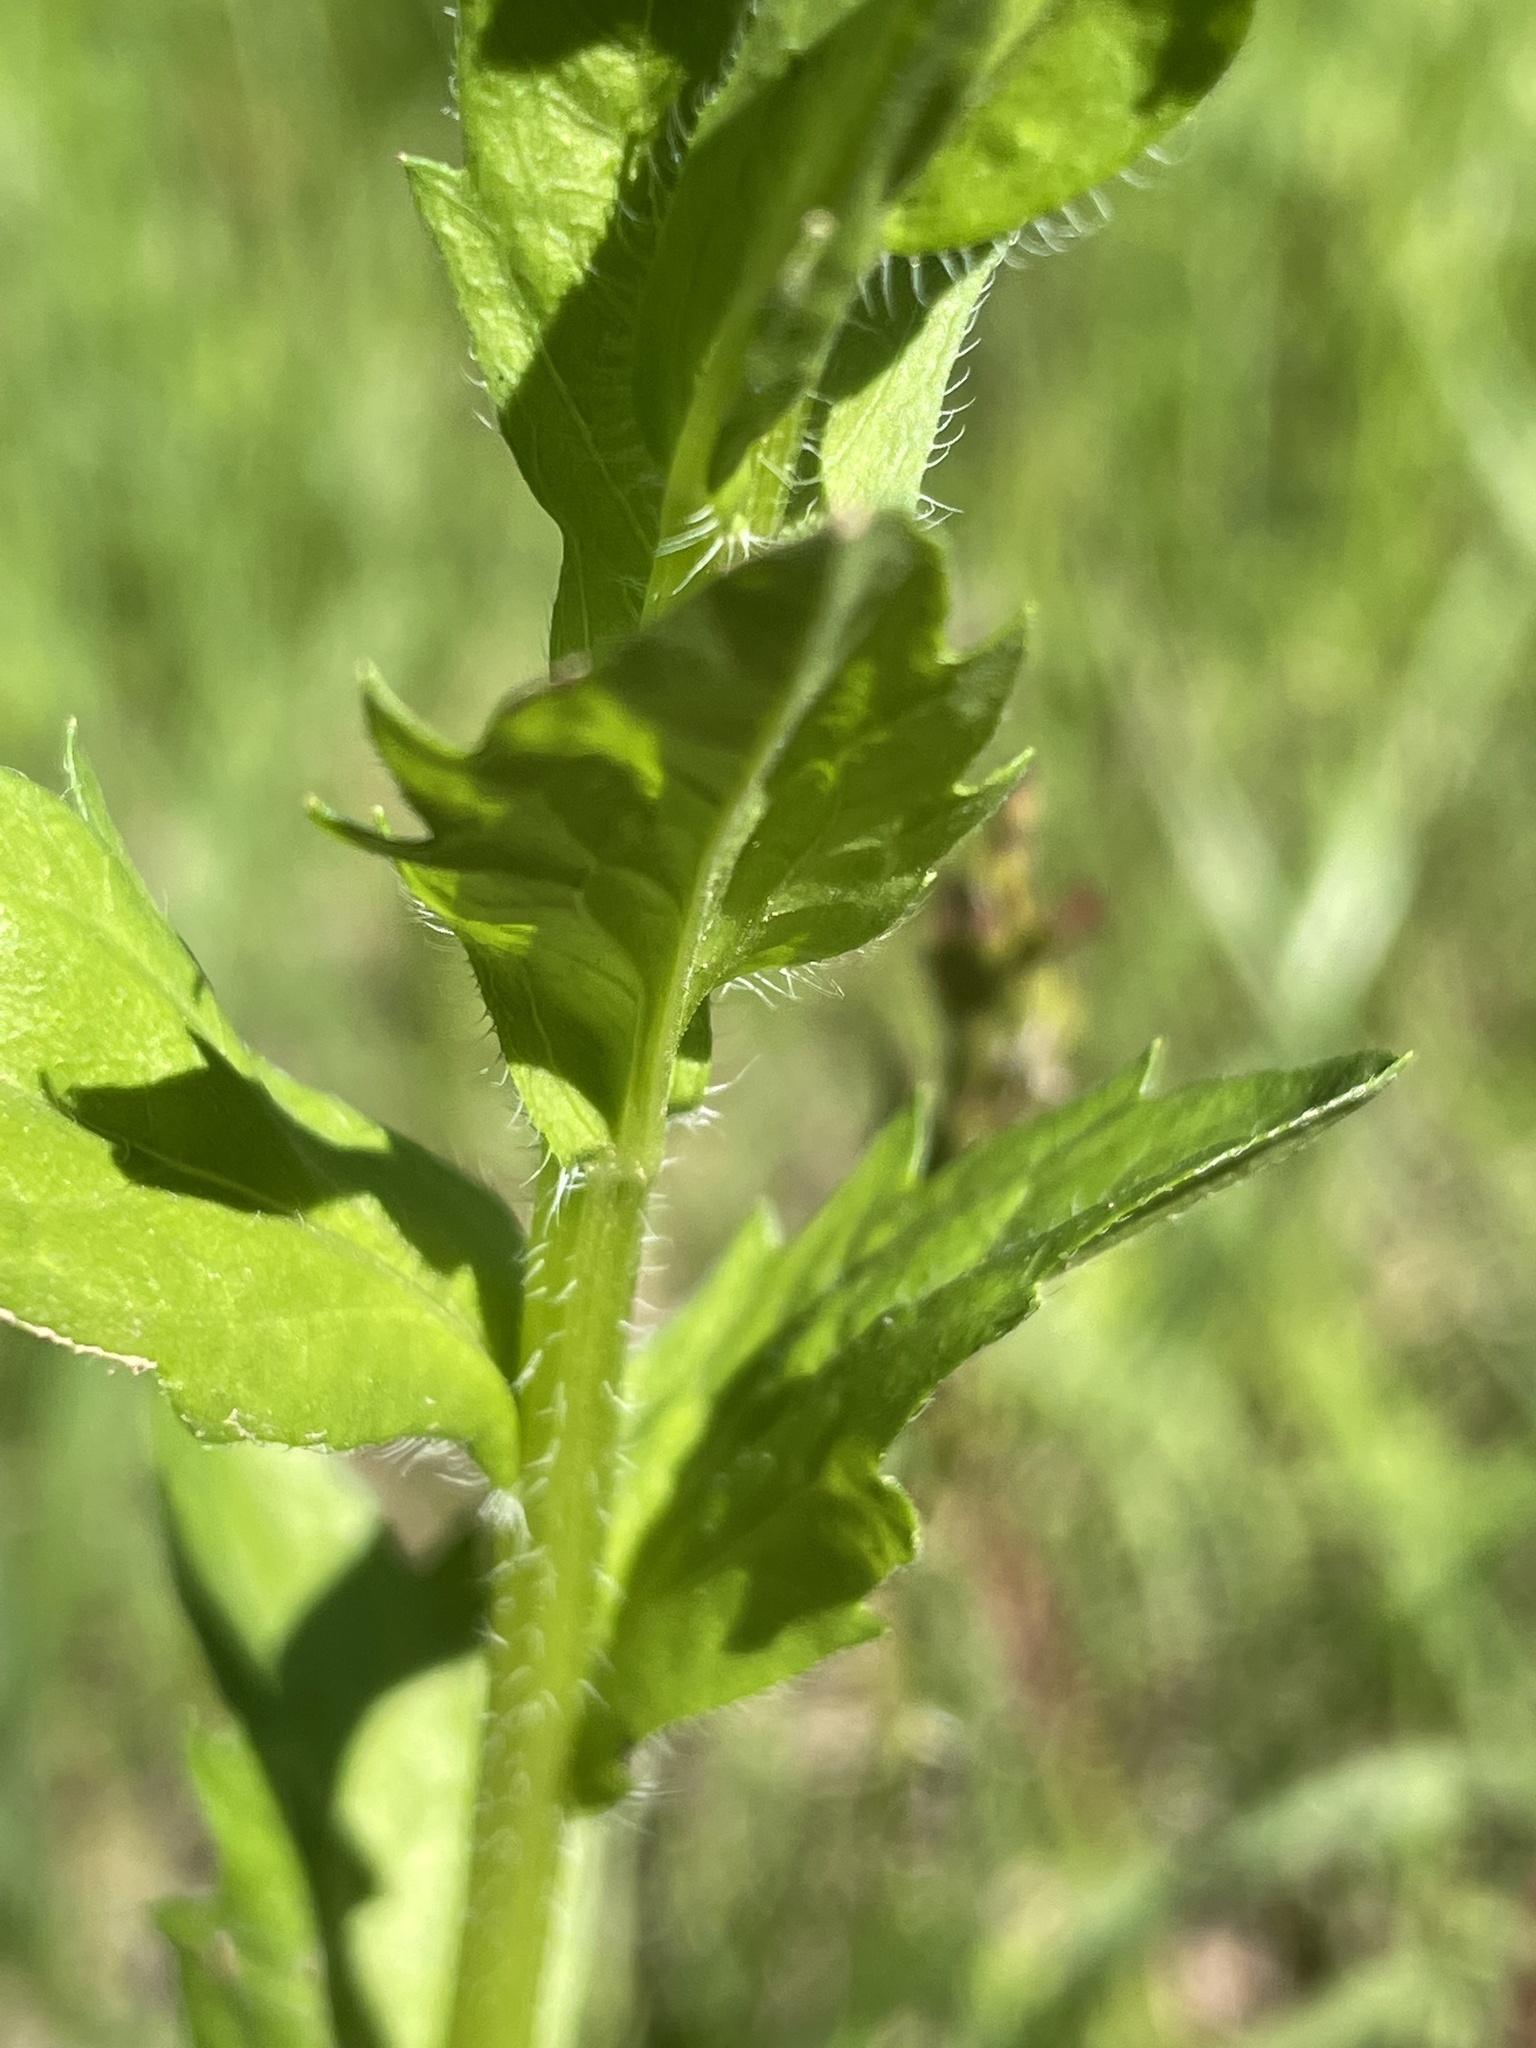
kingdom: Plantae
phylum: Tracheophyta
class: Magnoliopsida
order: Asterales
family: Asteraceae
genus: Erigeron
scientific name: Erigeron annuus
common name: Tall fleabane
